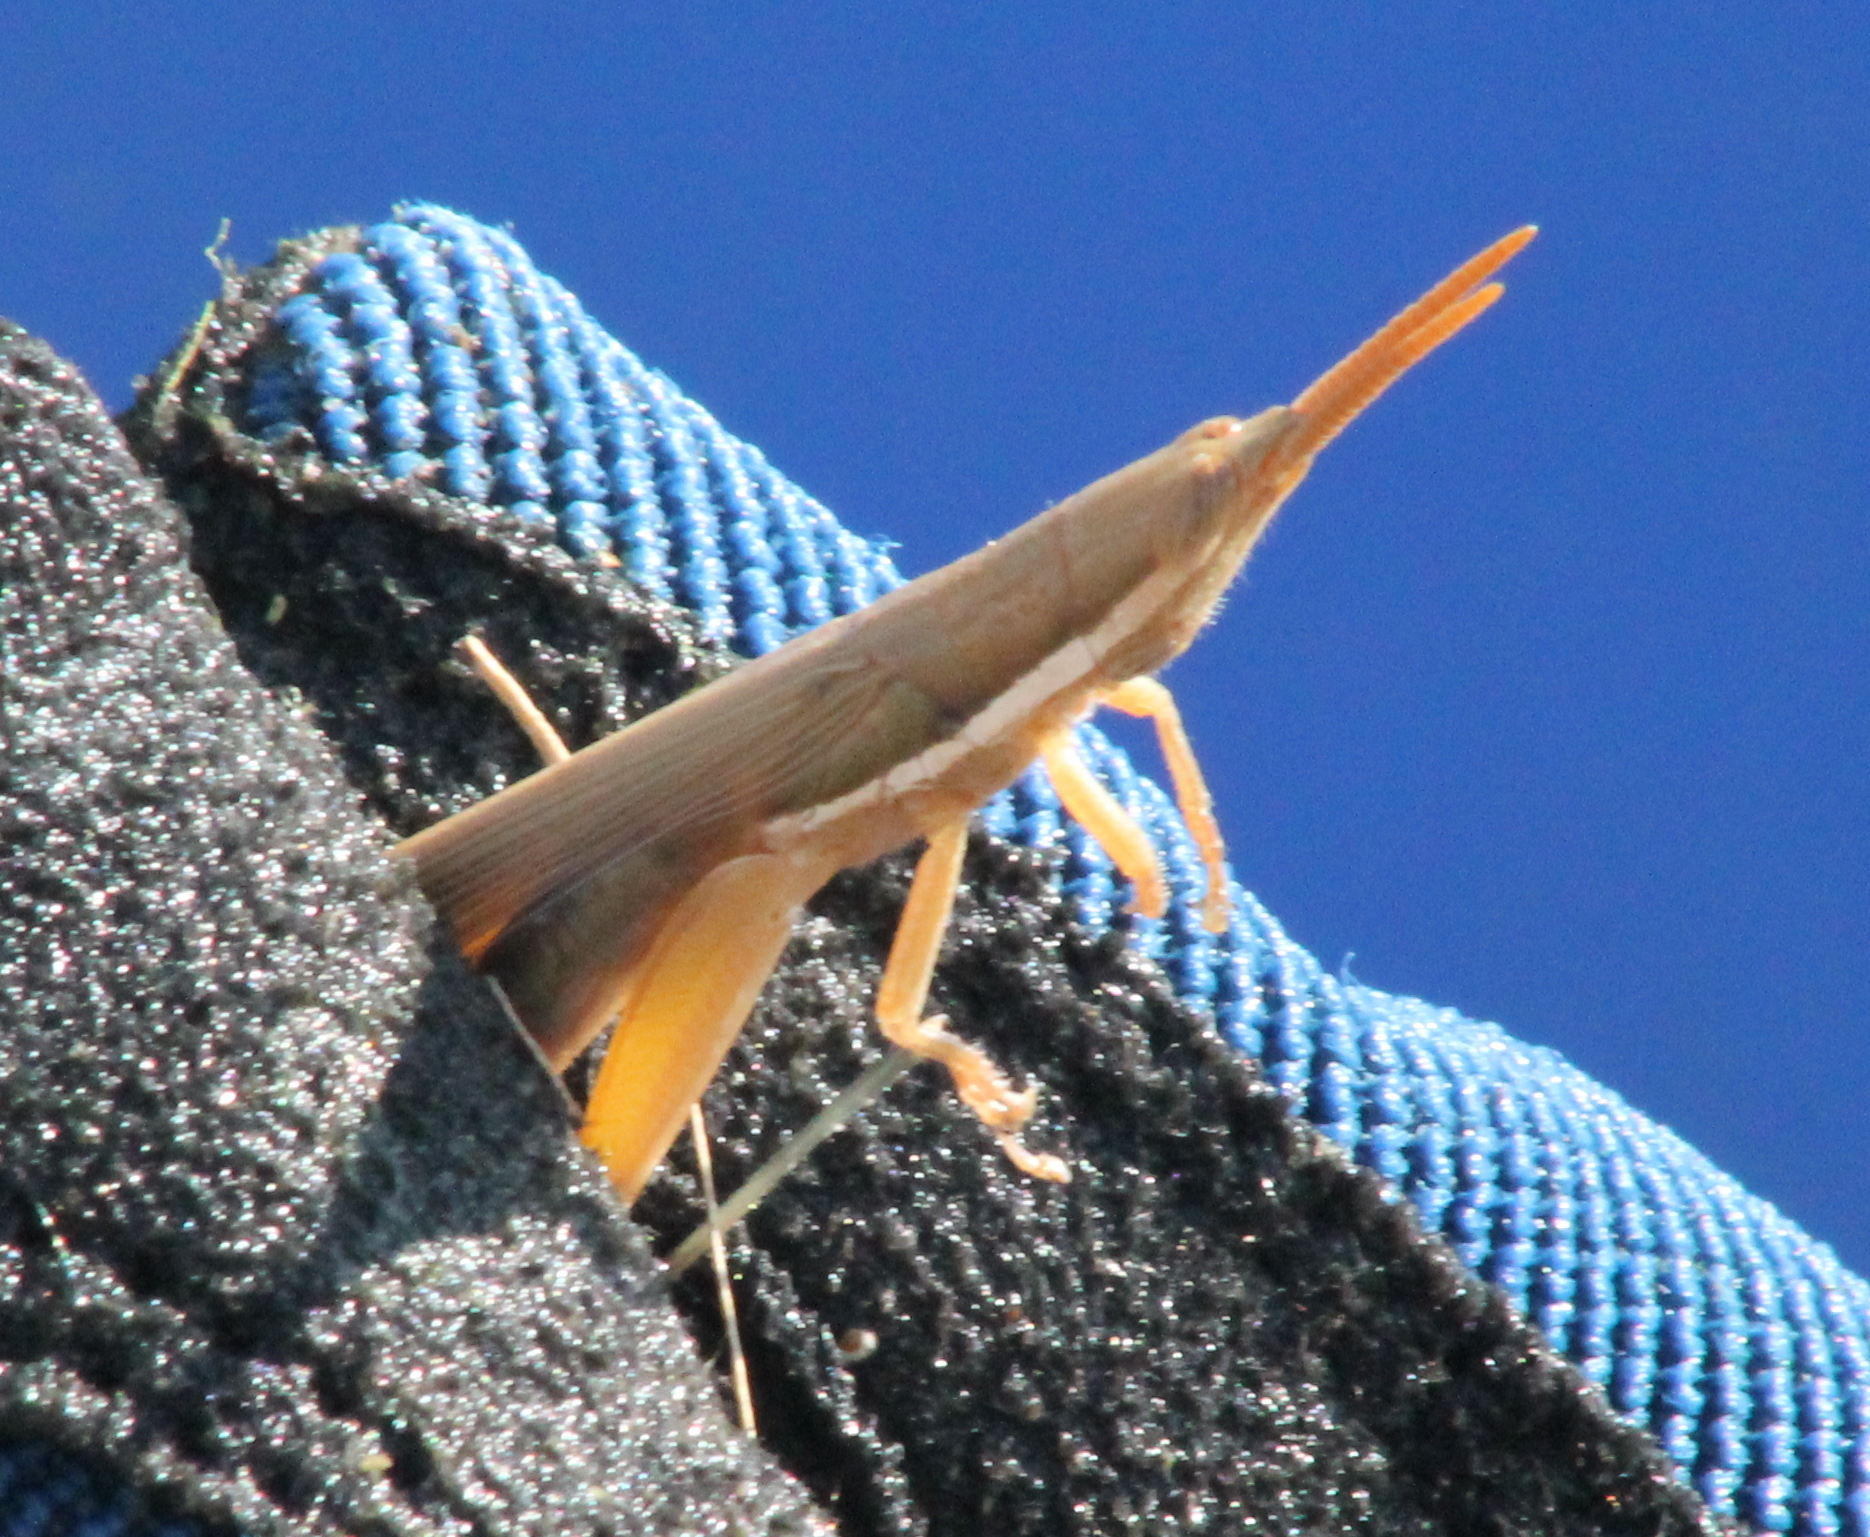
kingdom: Animalia
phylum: Arthropoda
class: Insecta
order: Orthoptera
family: Acrididae
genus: Leptysma
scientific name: Leptysma marginicollis
